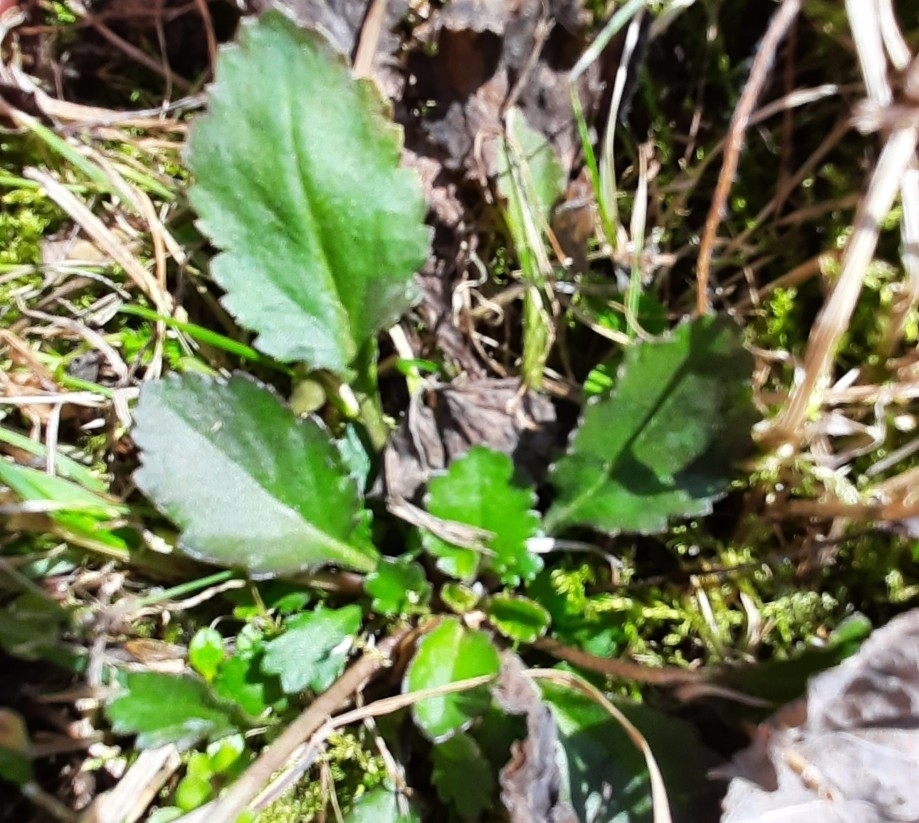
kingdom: Plantae
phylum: Tracheophyta
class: Magnoliopsida
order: Asterales
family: Asteraceae
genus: Leucanthemum
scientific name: Leucanthemum ircutianum
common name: Daisy
